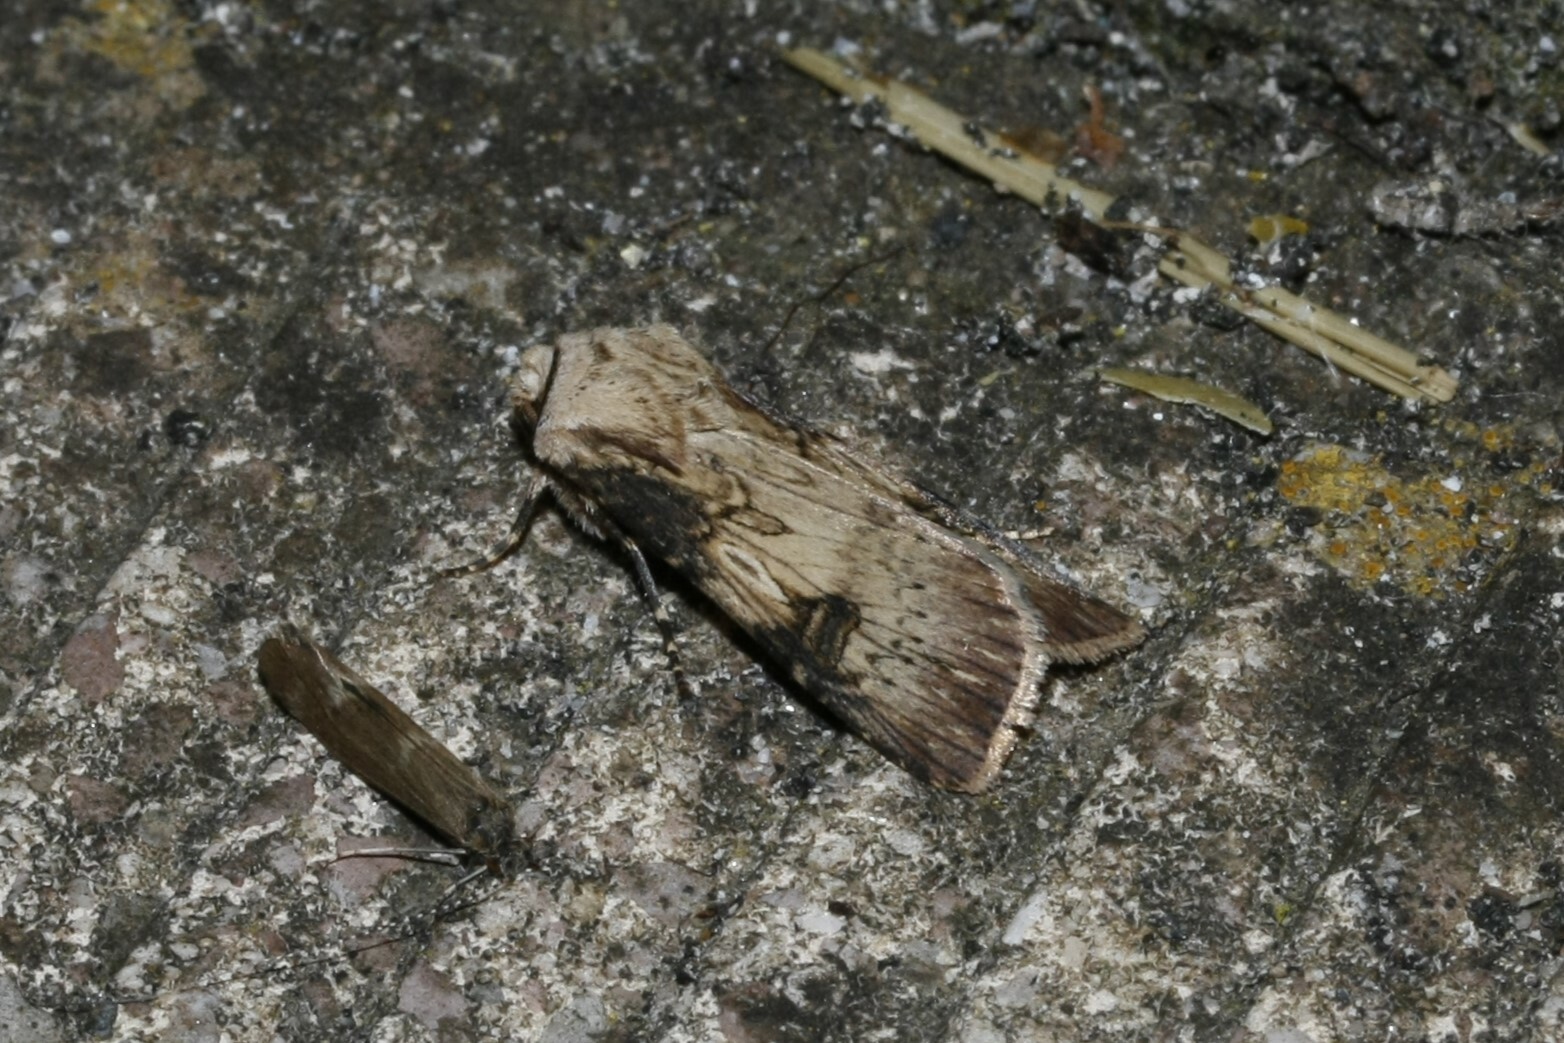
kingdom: Animalia
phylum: Arthropoda
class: Insecta
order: Lepidoptera
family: Noctuidae
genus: Agrotis
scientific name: Agrotis puta
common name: Shuttle-shaped dart
